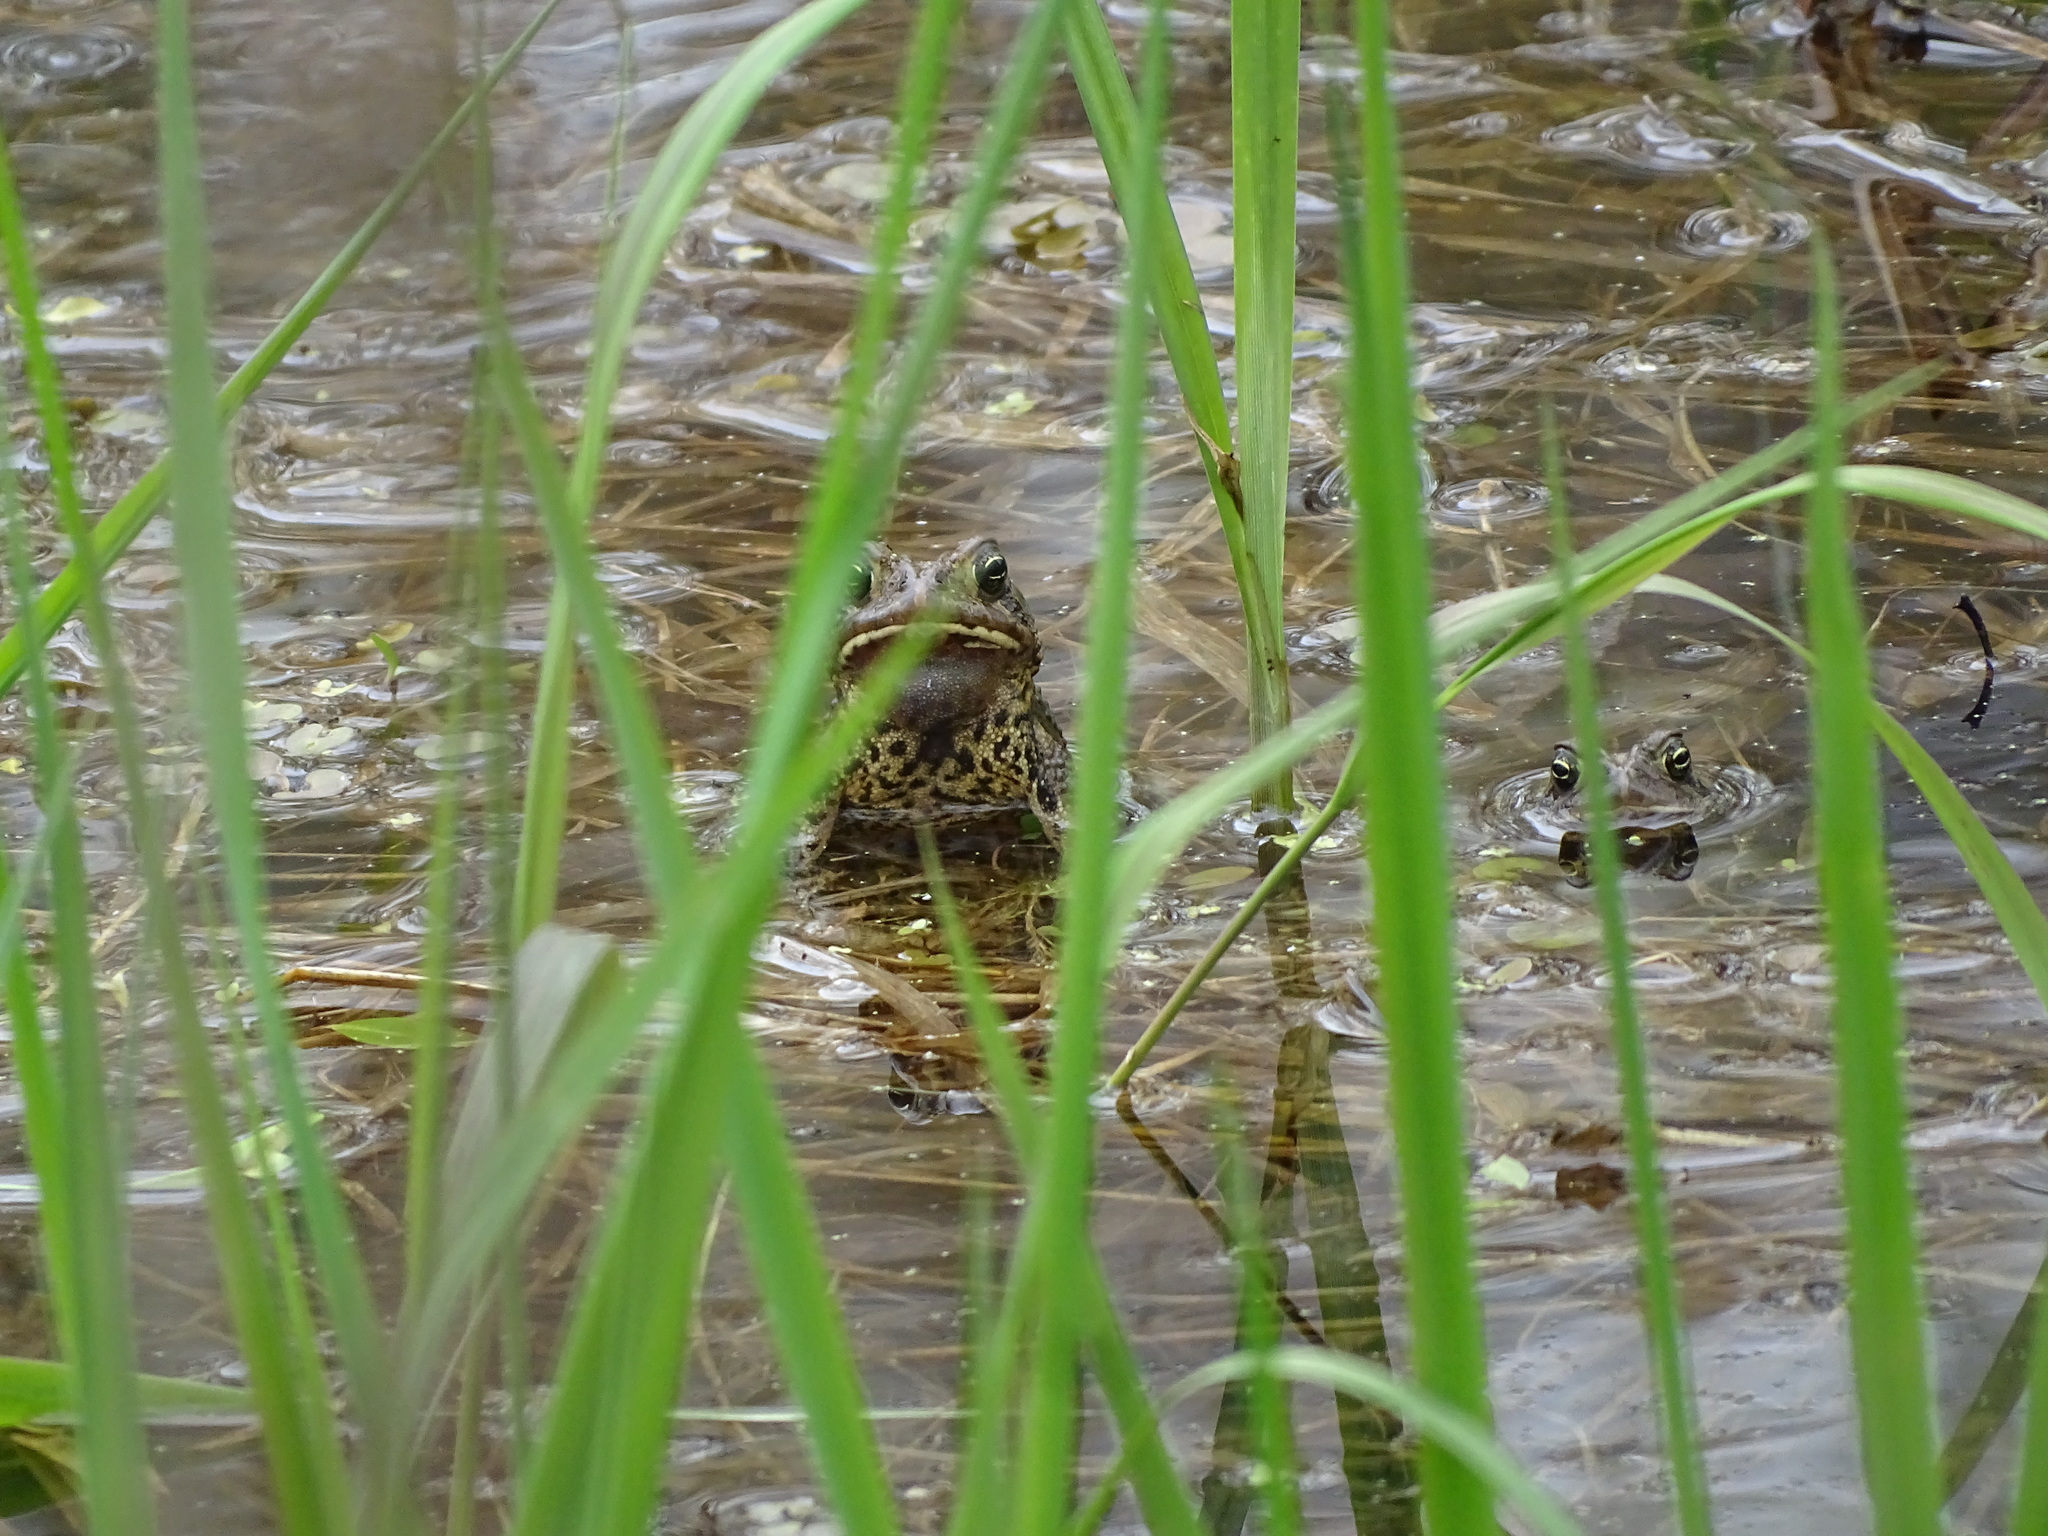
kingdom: Animalia
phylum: Chordata
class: Amphibia
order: Anura
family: Bufonidae
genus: Anaxyrus
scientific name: Anaxyrus americanus
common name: American toad
